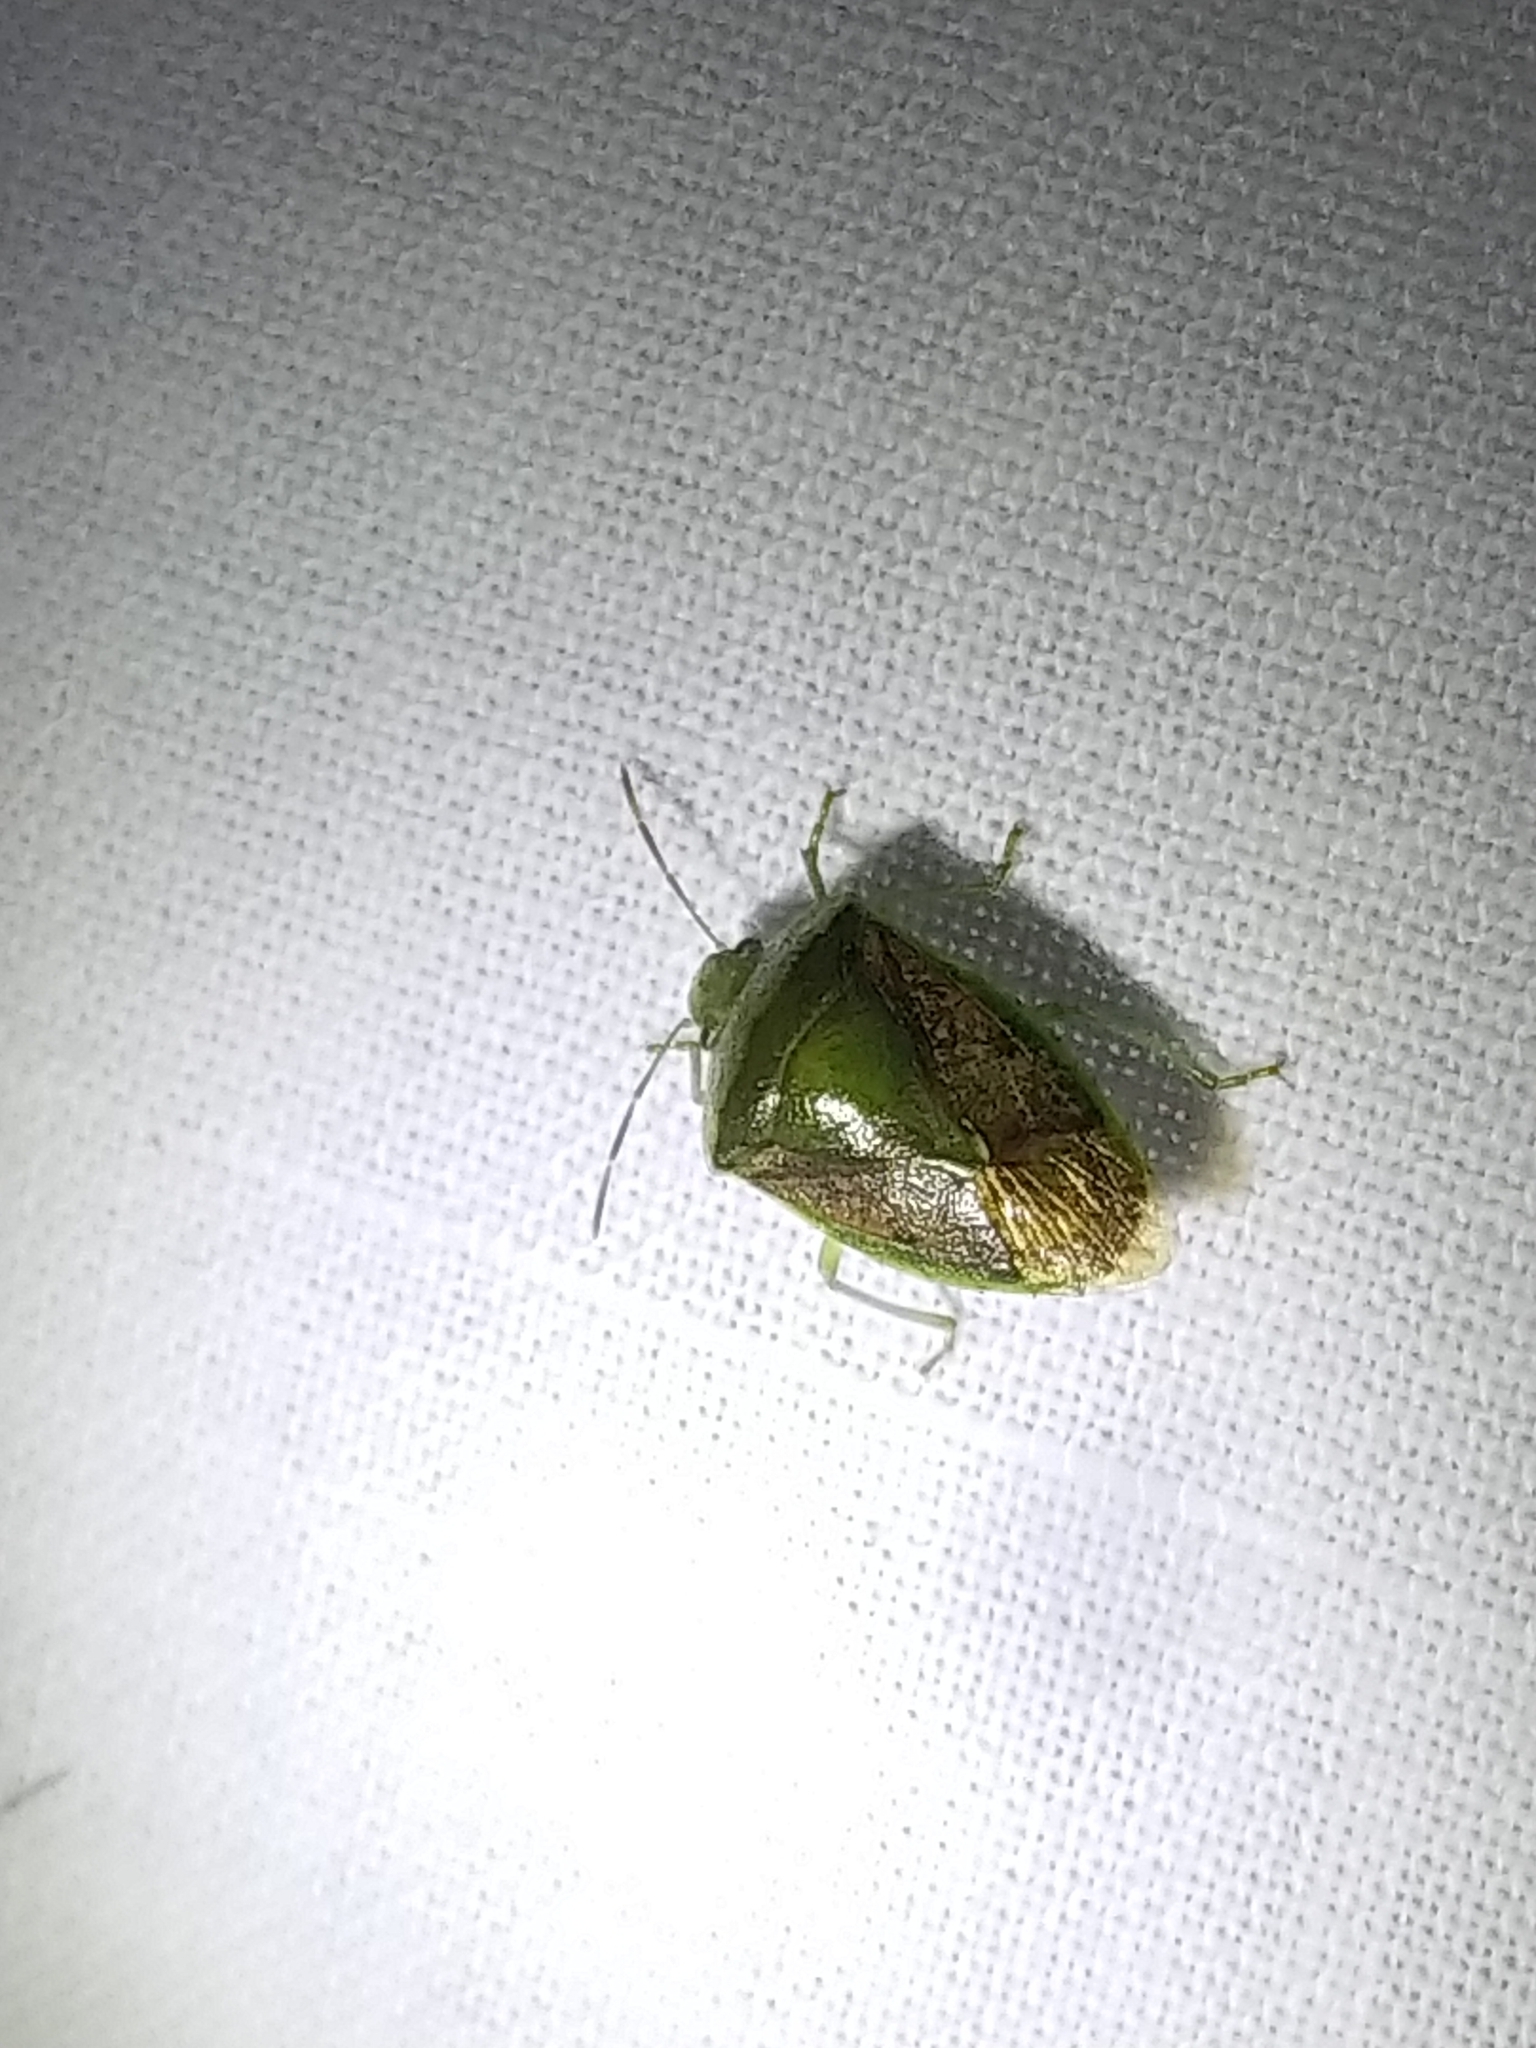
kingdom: Animalia
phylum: Arthropoda
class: Insecta
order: Hemiptera
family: Pentatomidae
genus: Banasa
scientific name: Banasa calva
